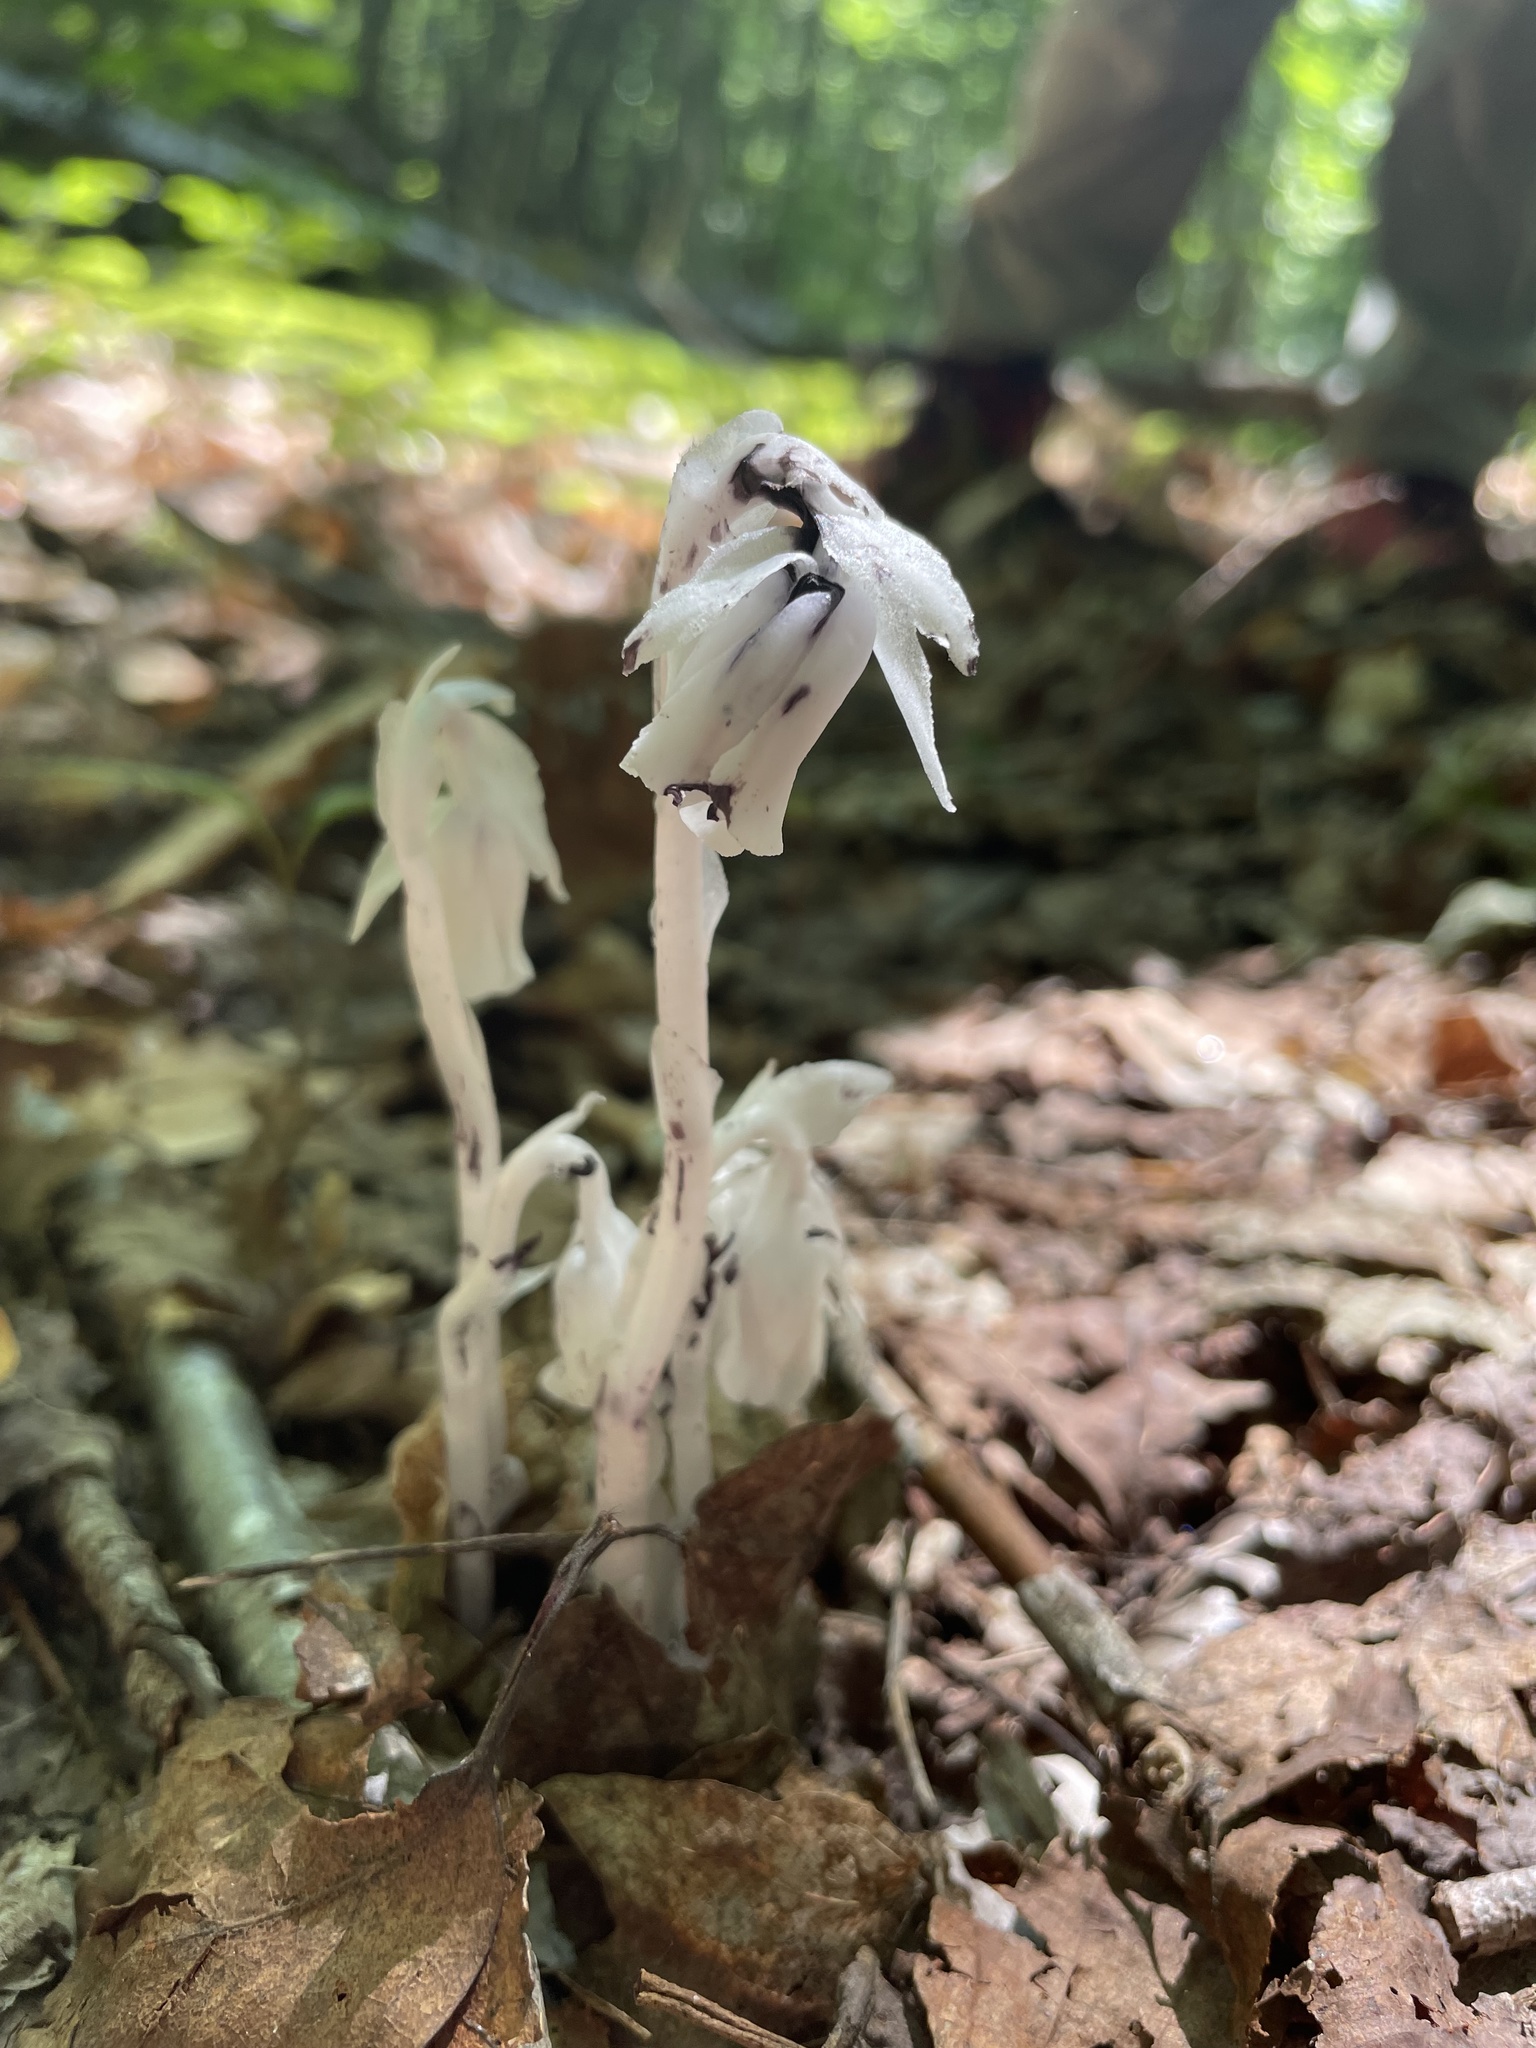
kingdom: Plantae
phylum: Tracheophyta
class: Magnoliopsida
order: Ericales
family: Ericaceae
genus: Monotropa
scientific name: Monotropa uniflora
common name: Convulsion root
